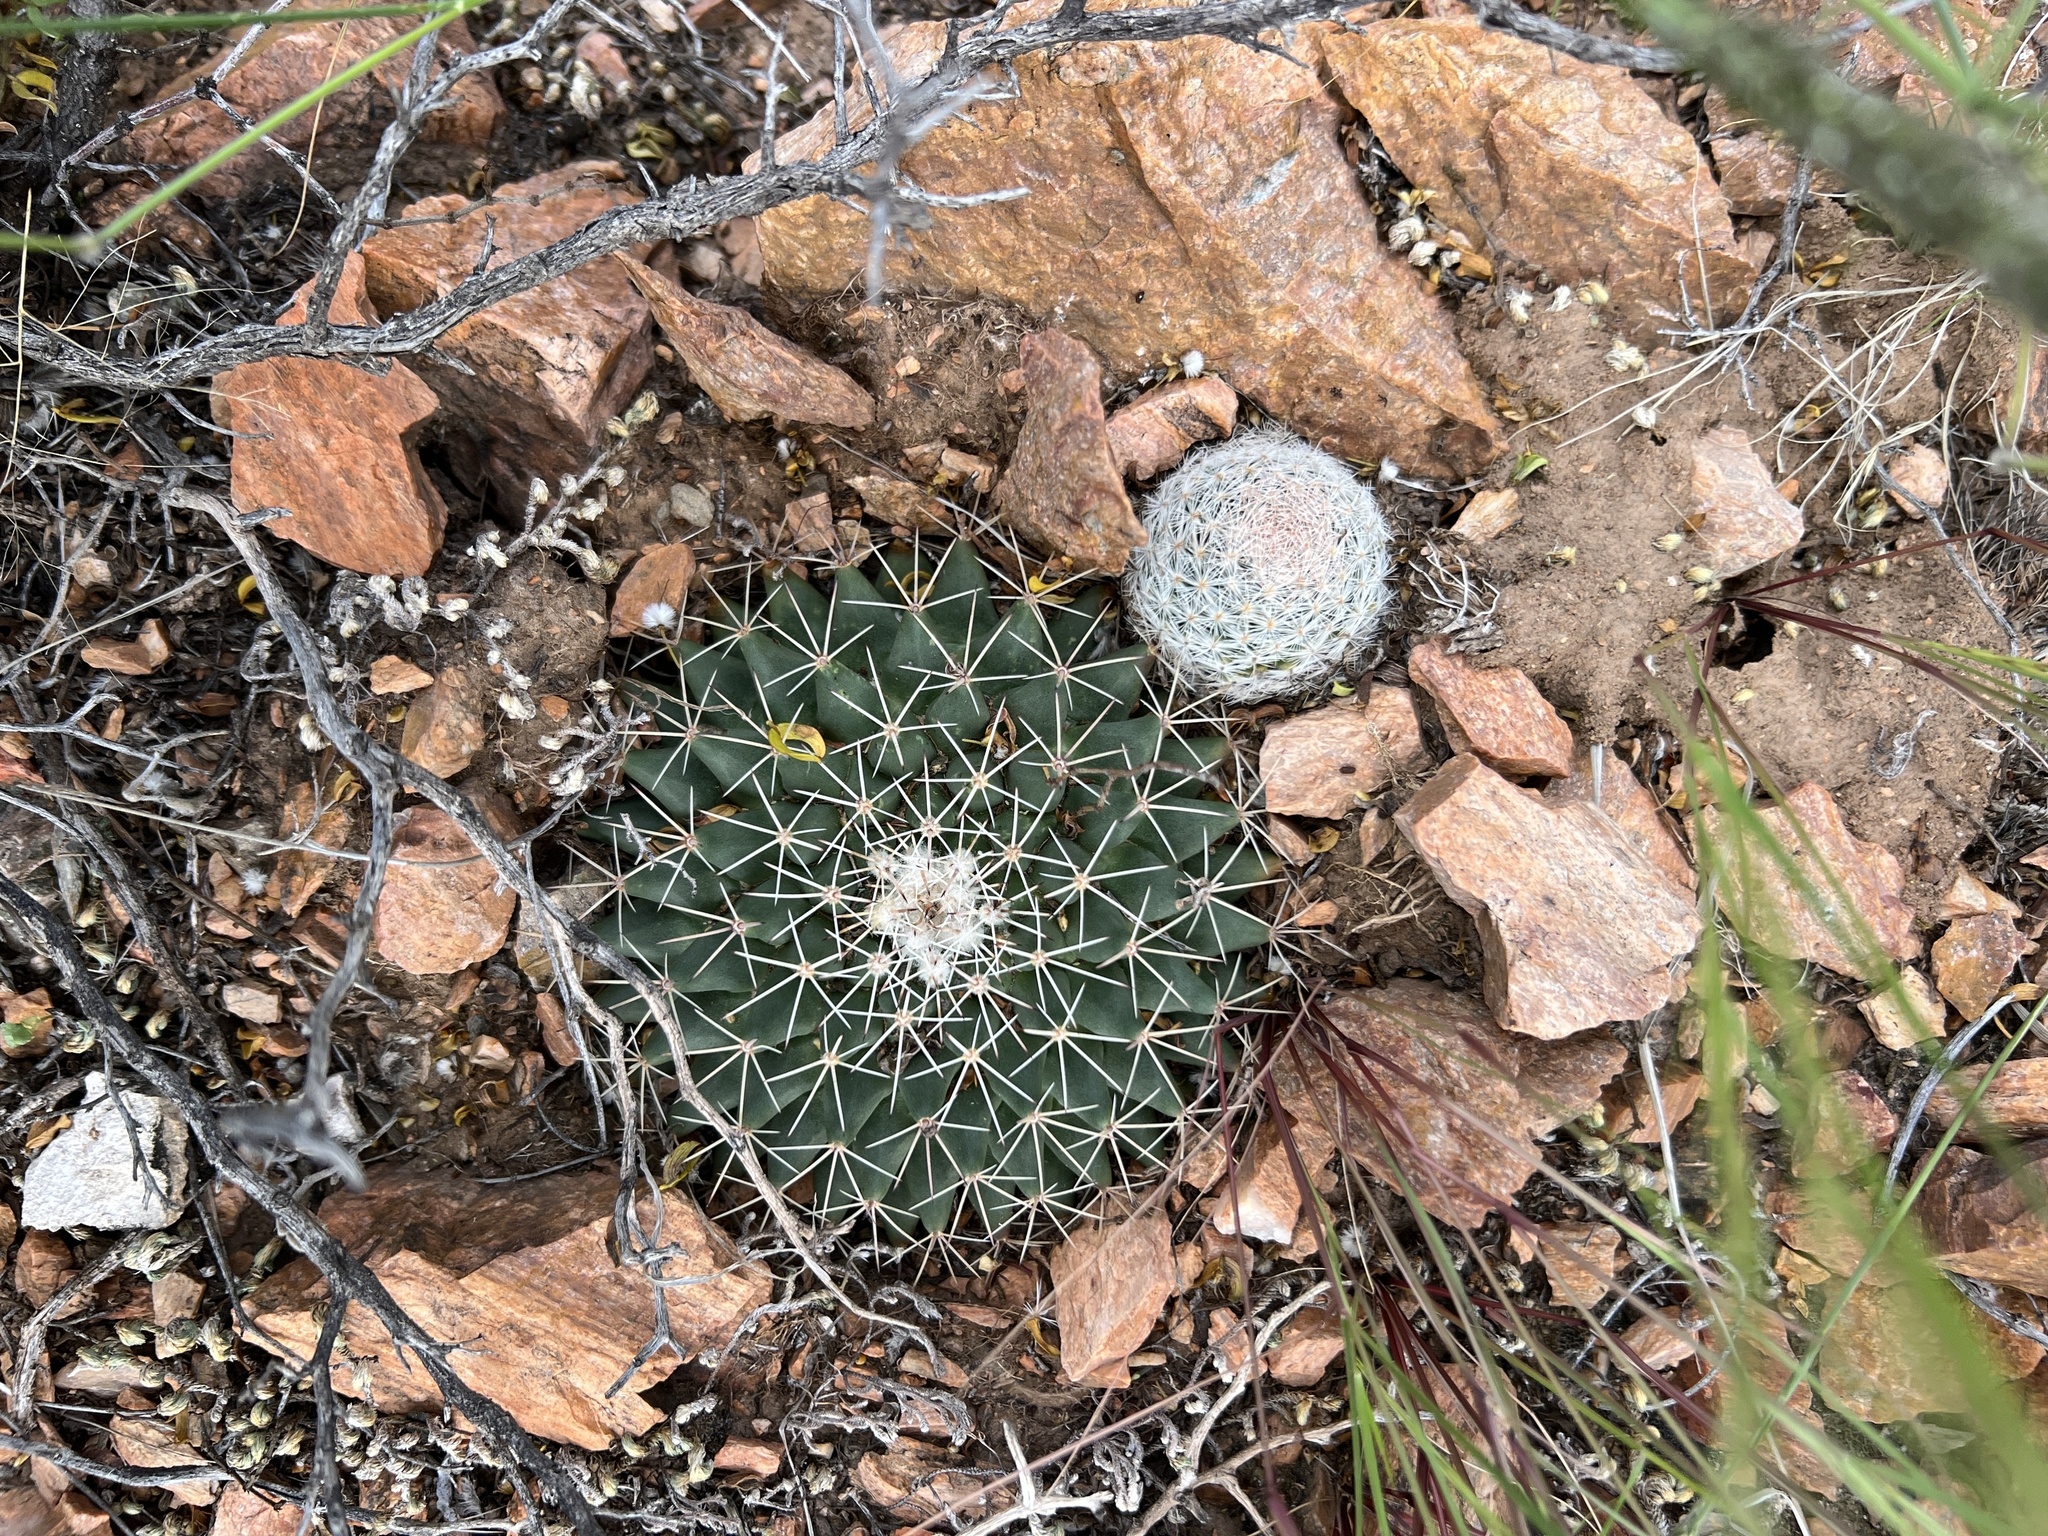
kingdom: Plantae
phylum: Tracheophyta
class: Magnoliopsida
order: Caryophyllales
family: Cactaceae
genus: Mammillaria
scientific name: Mammillaria heyderi
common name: Little nipple cactus
